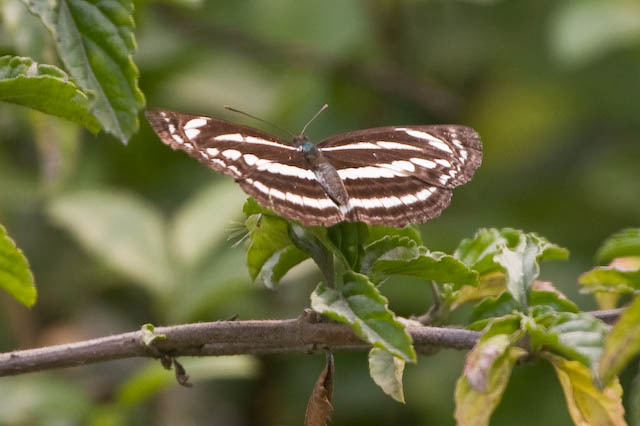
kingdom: Animalia
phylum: Arthropoda
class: Insecta
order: Lepidoptera
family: Nymphalidae
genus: Neptis
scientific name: Neptis leucoporos
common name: Grey sailer
